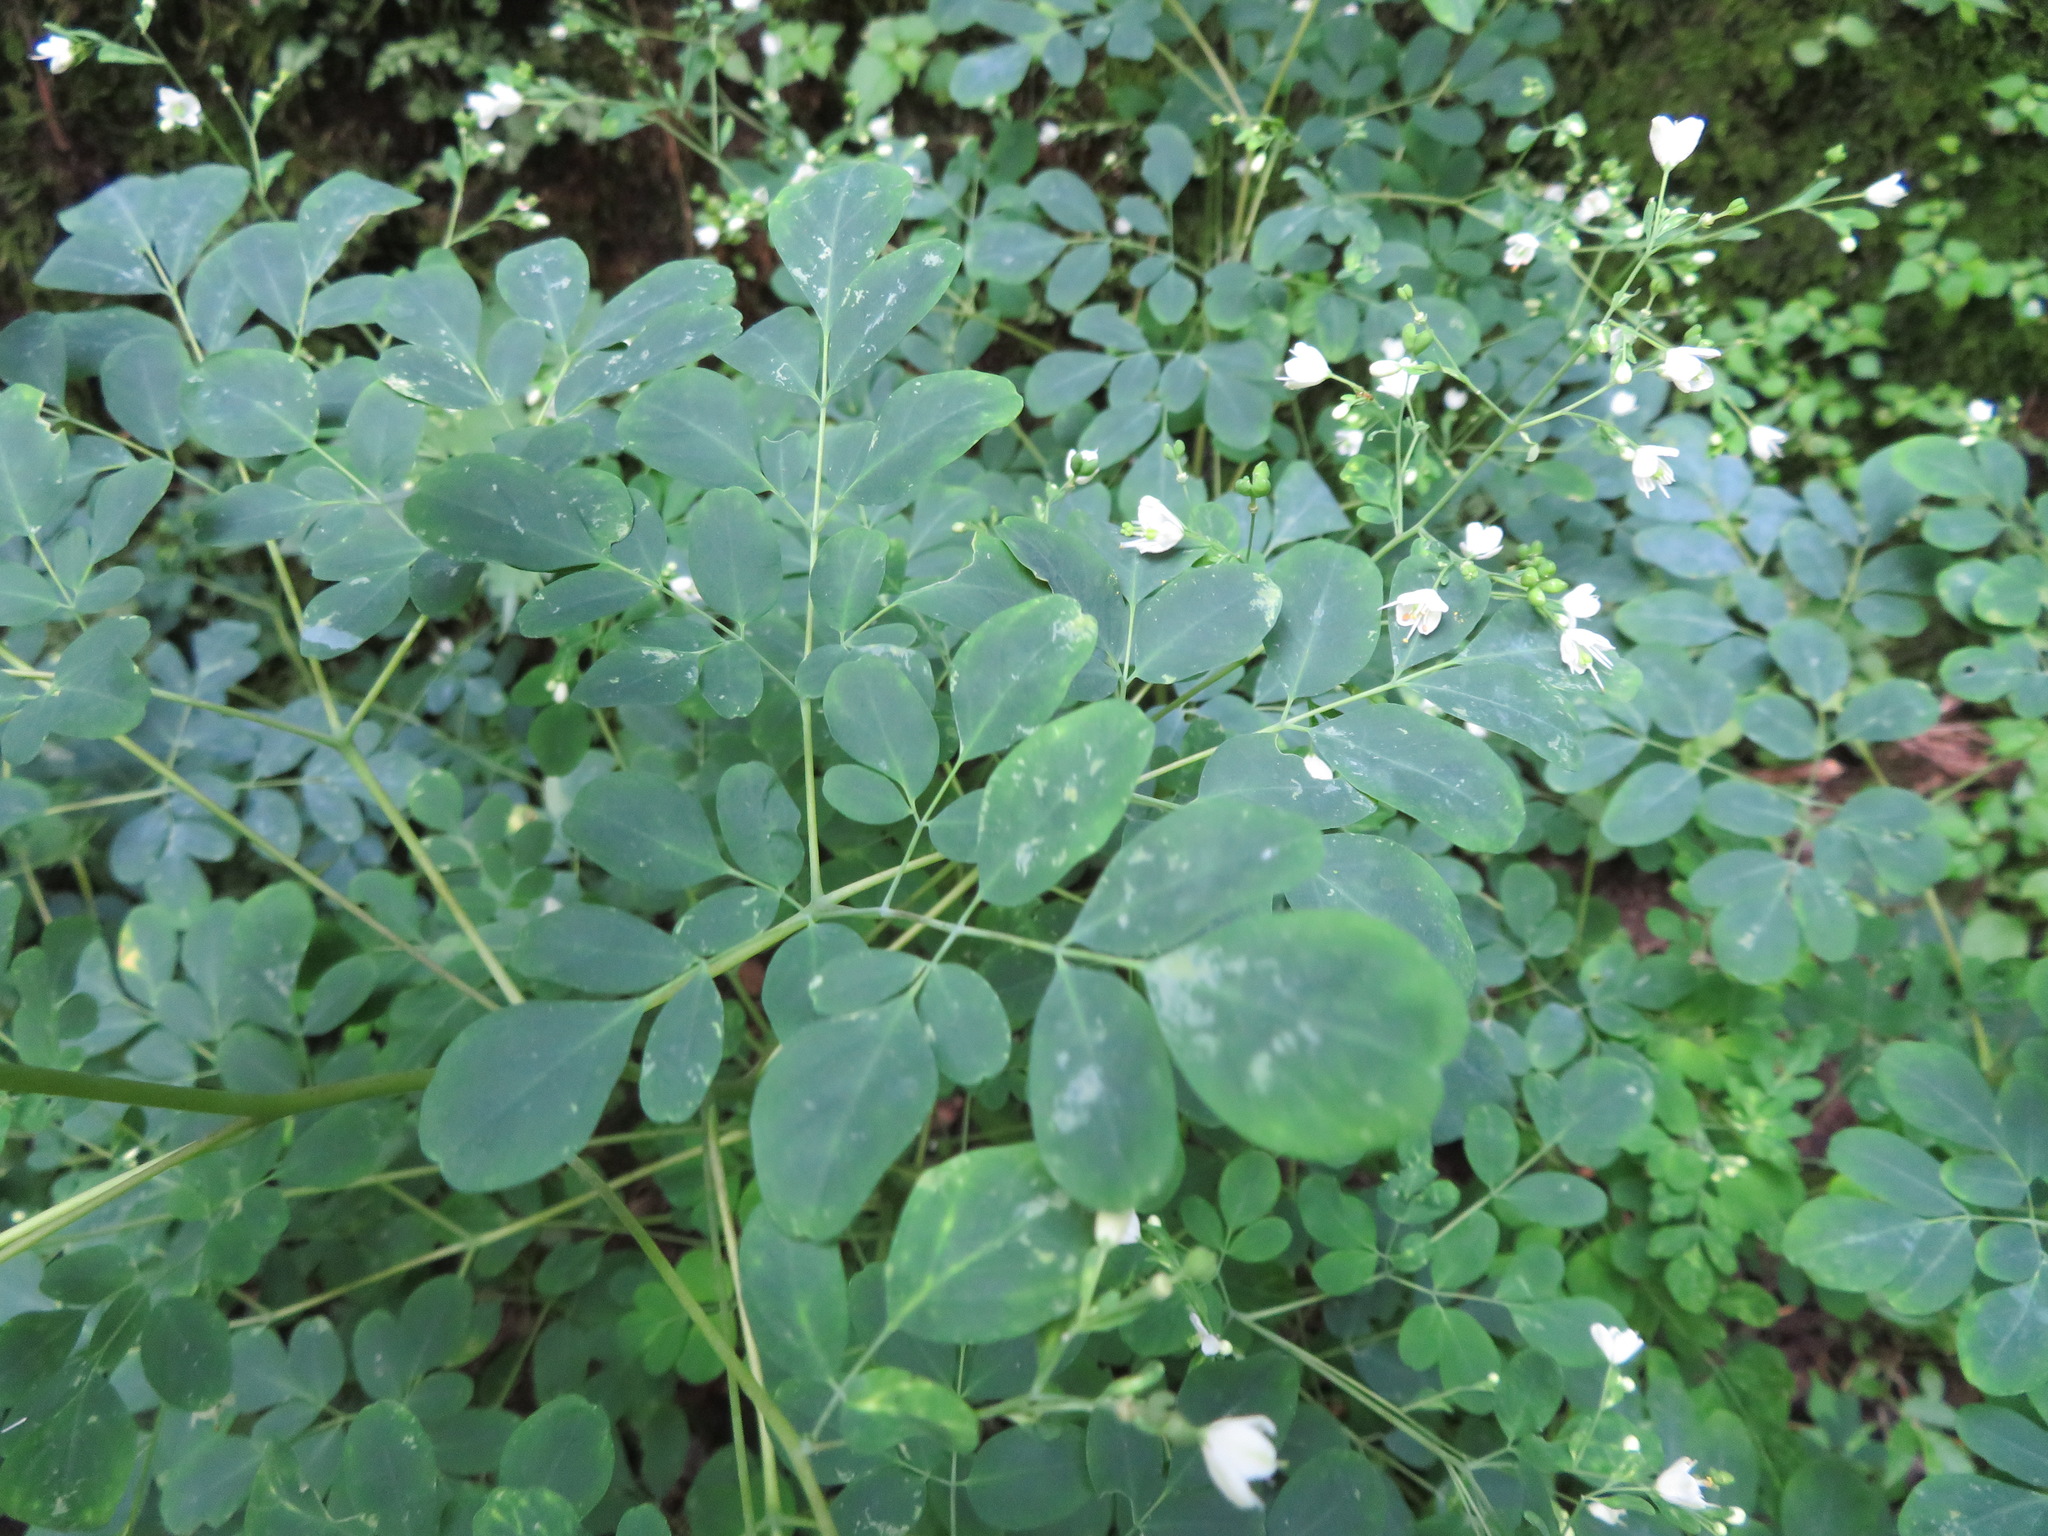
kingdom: Plantae
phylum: Tracheophyta
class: Magnoliopsida
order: Sapindales
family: Rutaceae
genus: Boenninghausenia
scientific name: Boenninghausenia albiflora
